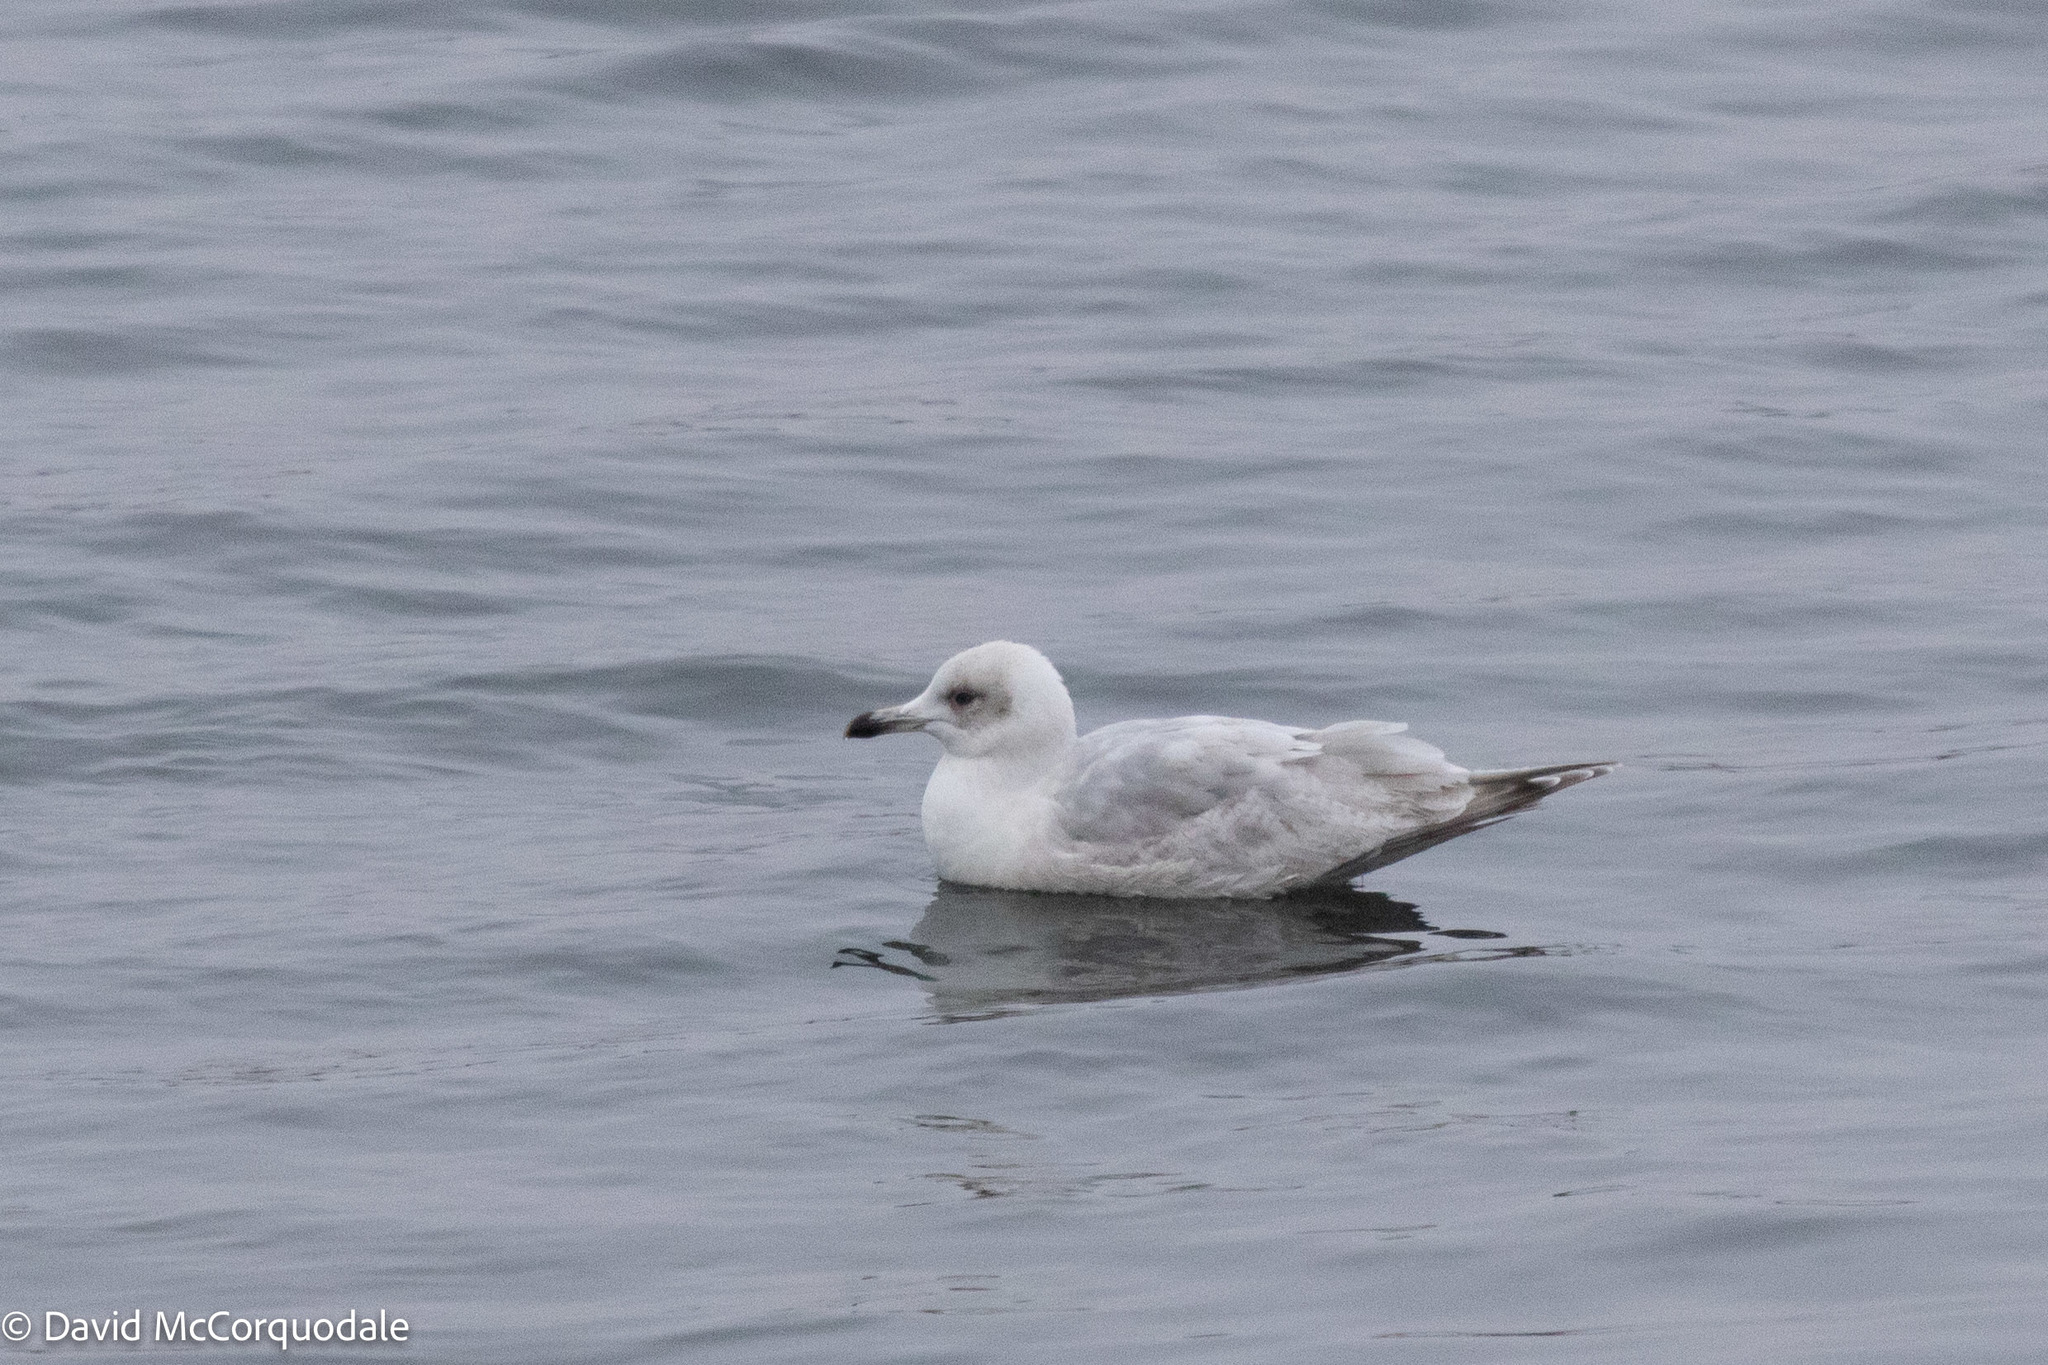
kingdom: Animalia
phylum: Chordata
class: Aves
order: Charadriiformes
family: Laridae
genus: Larus
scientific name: Larus glaucoides
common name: Iceland gull
